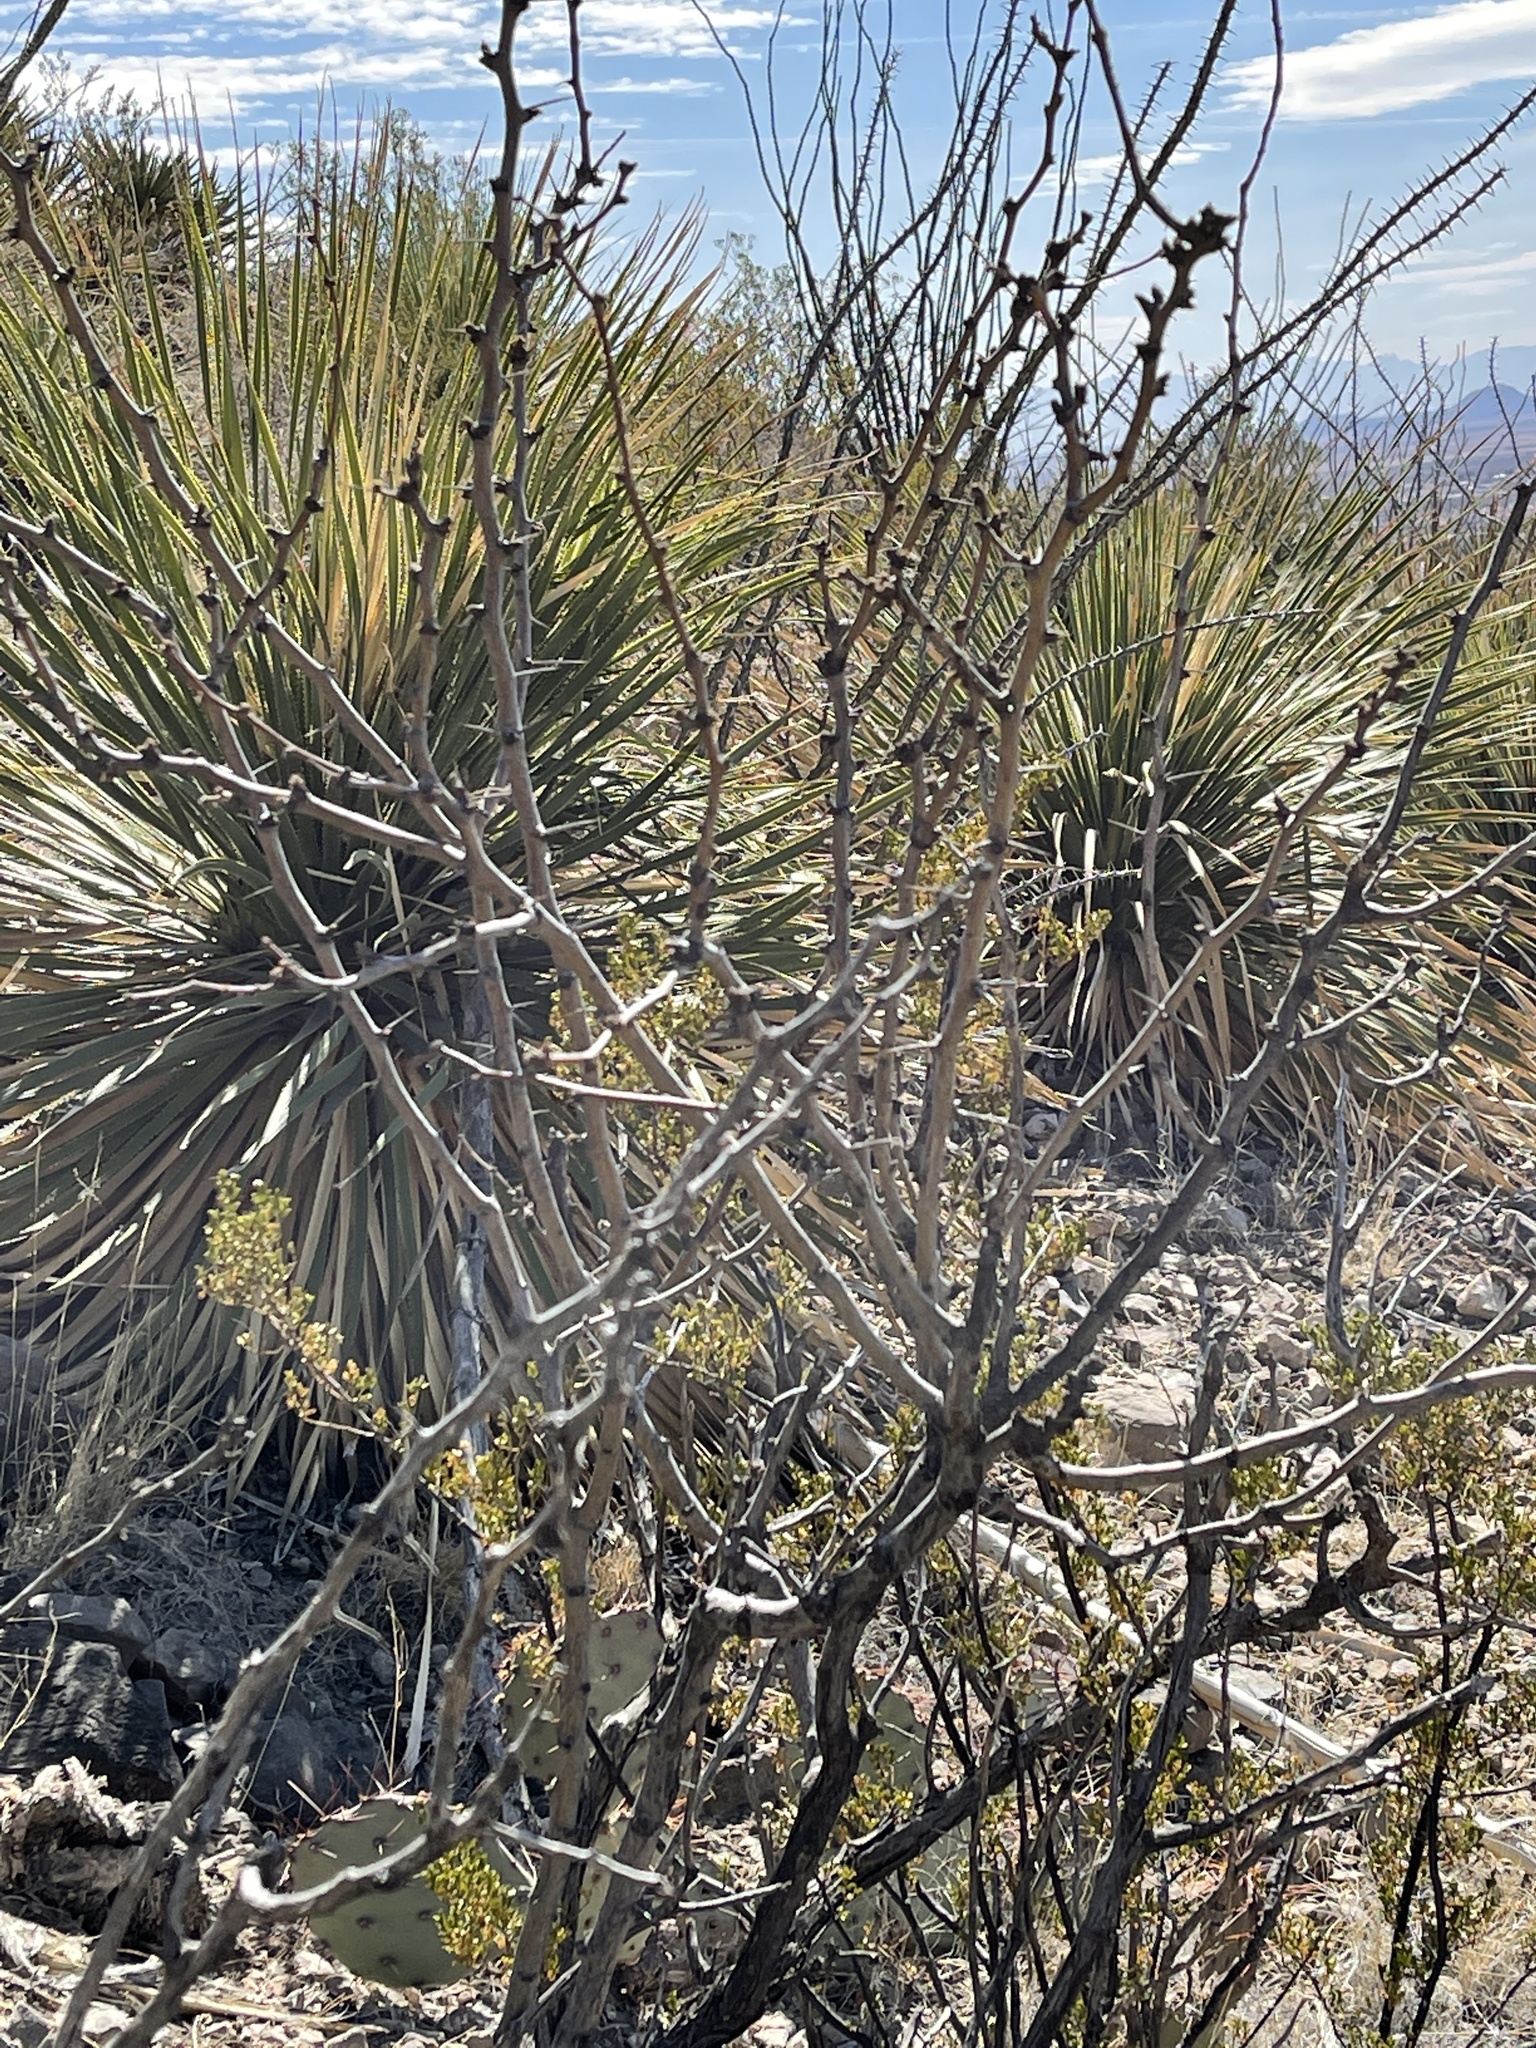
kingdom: Plantae
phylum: Tracheophyta
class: Magnoliopsida
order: Fabales
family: Fabaceae
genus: Prosopis
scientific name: Prosopis glandulosa
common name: Honey mesquite
